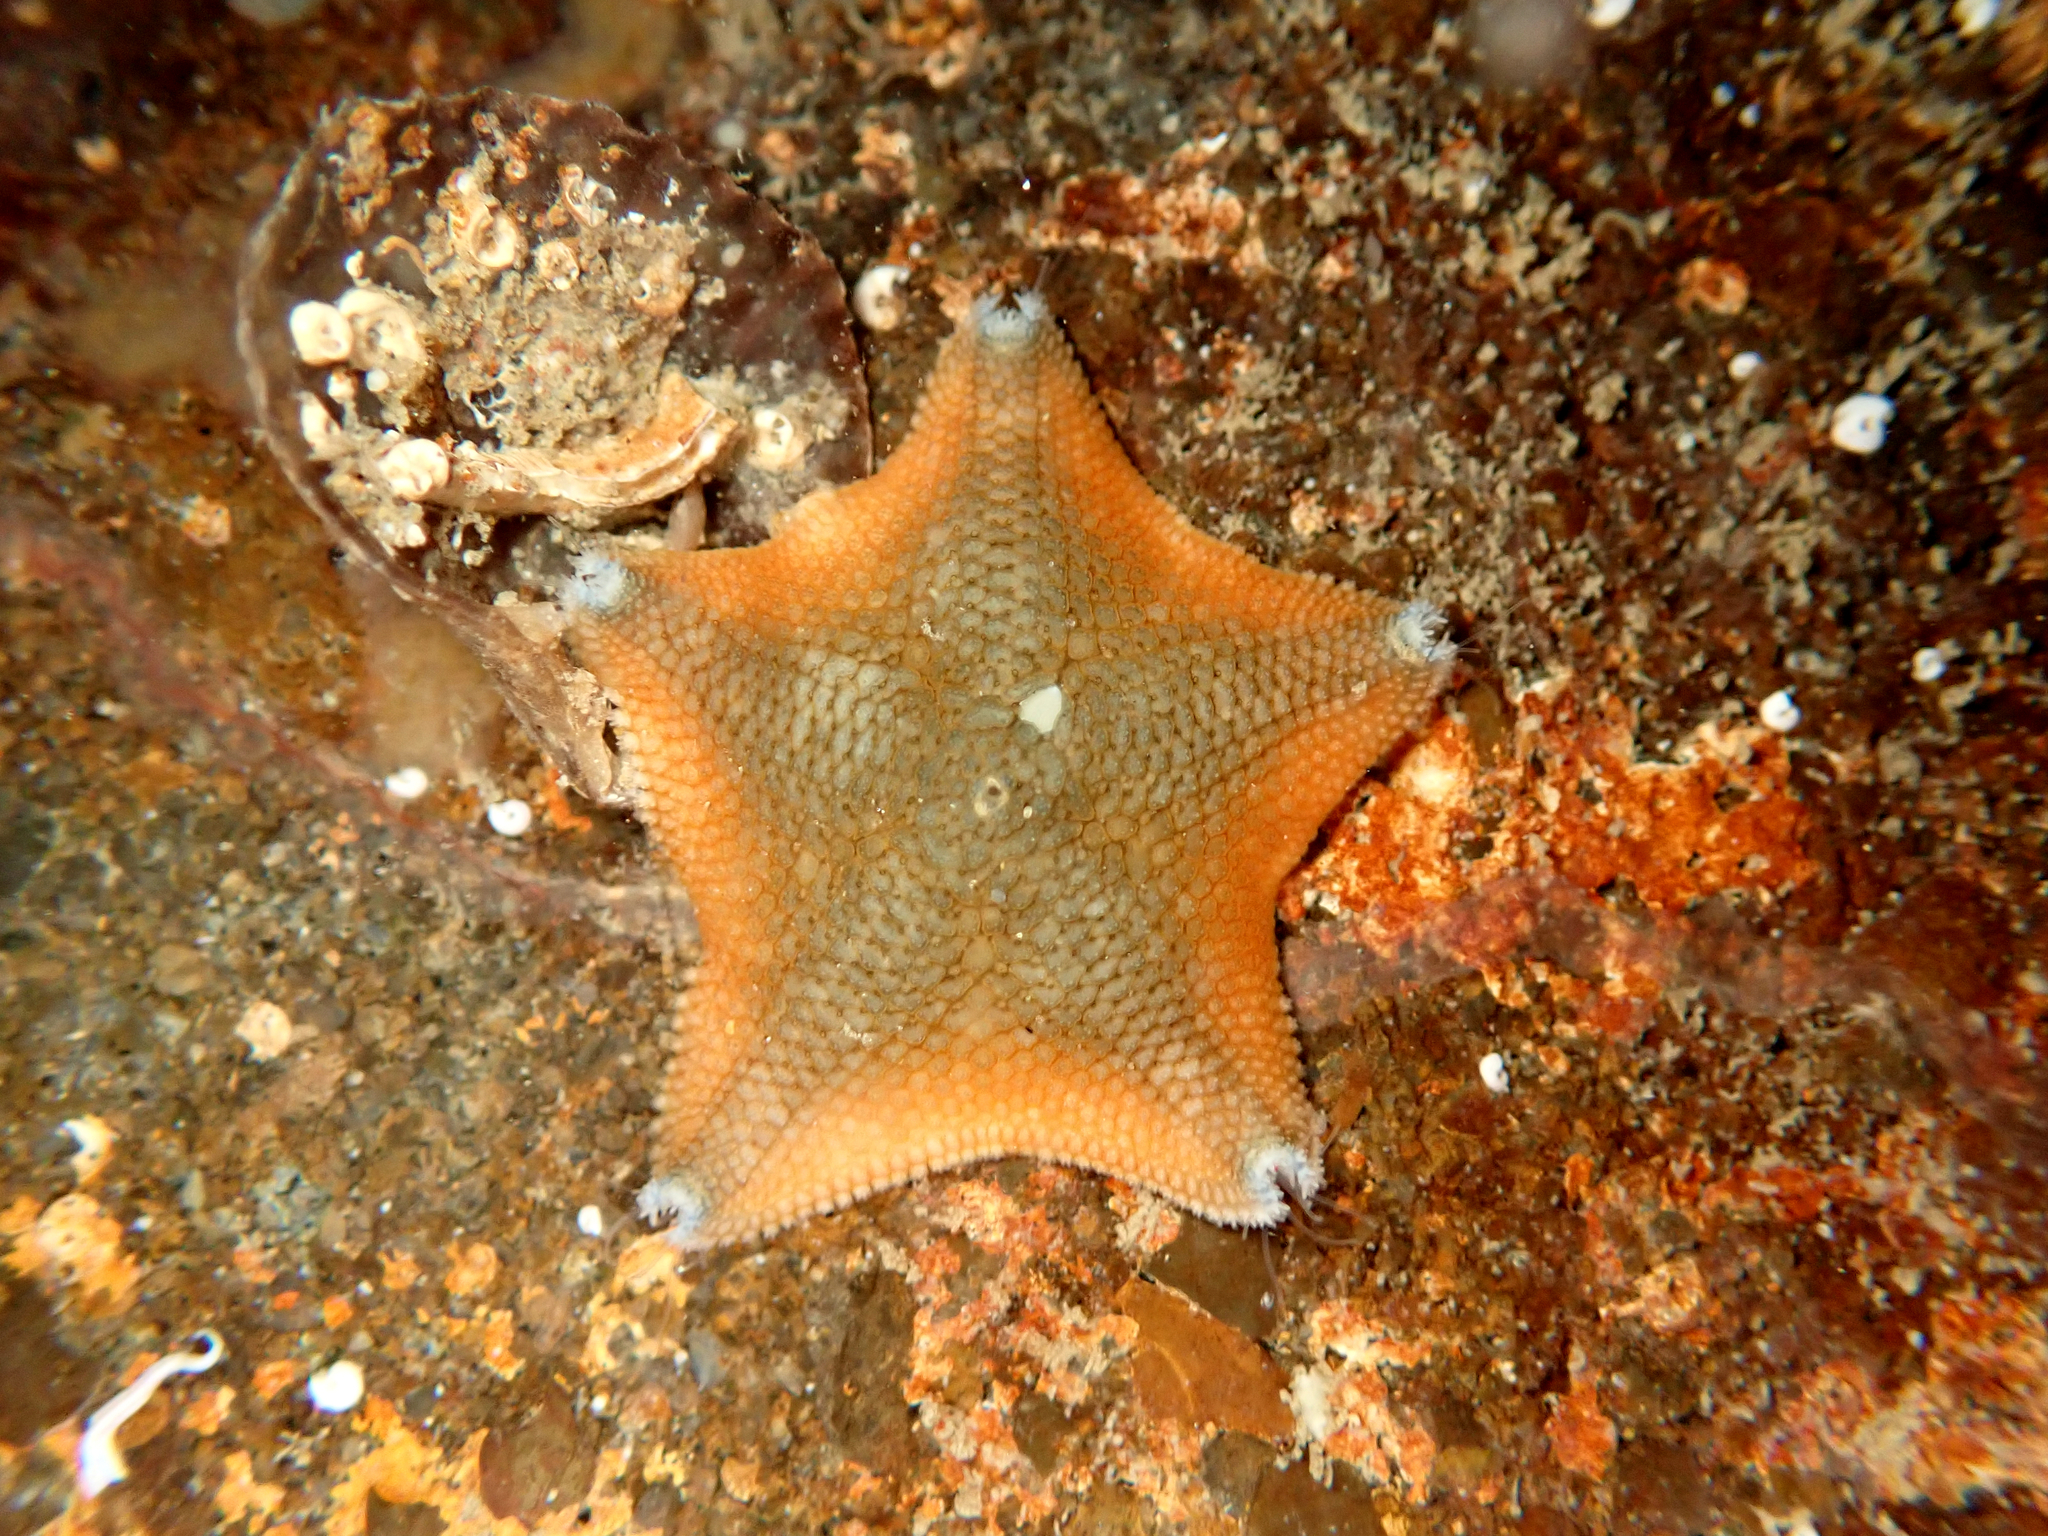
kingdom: Animalia
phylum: Echinodermata
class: Asteroidea
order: Valvatida
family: Asterinidae
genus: Patiriella
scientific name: Patiriella regularis
